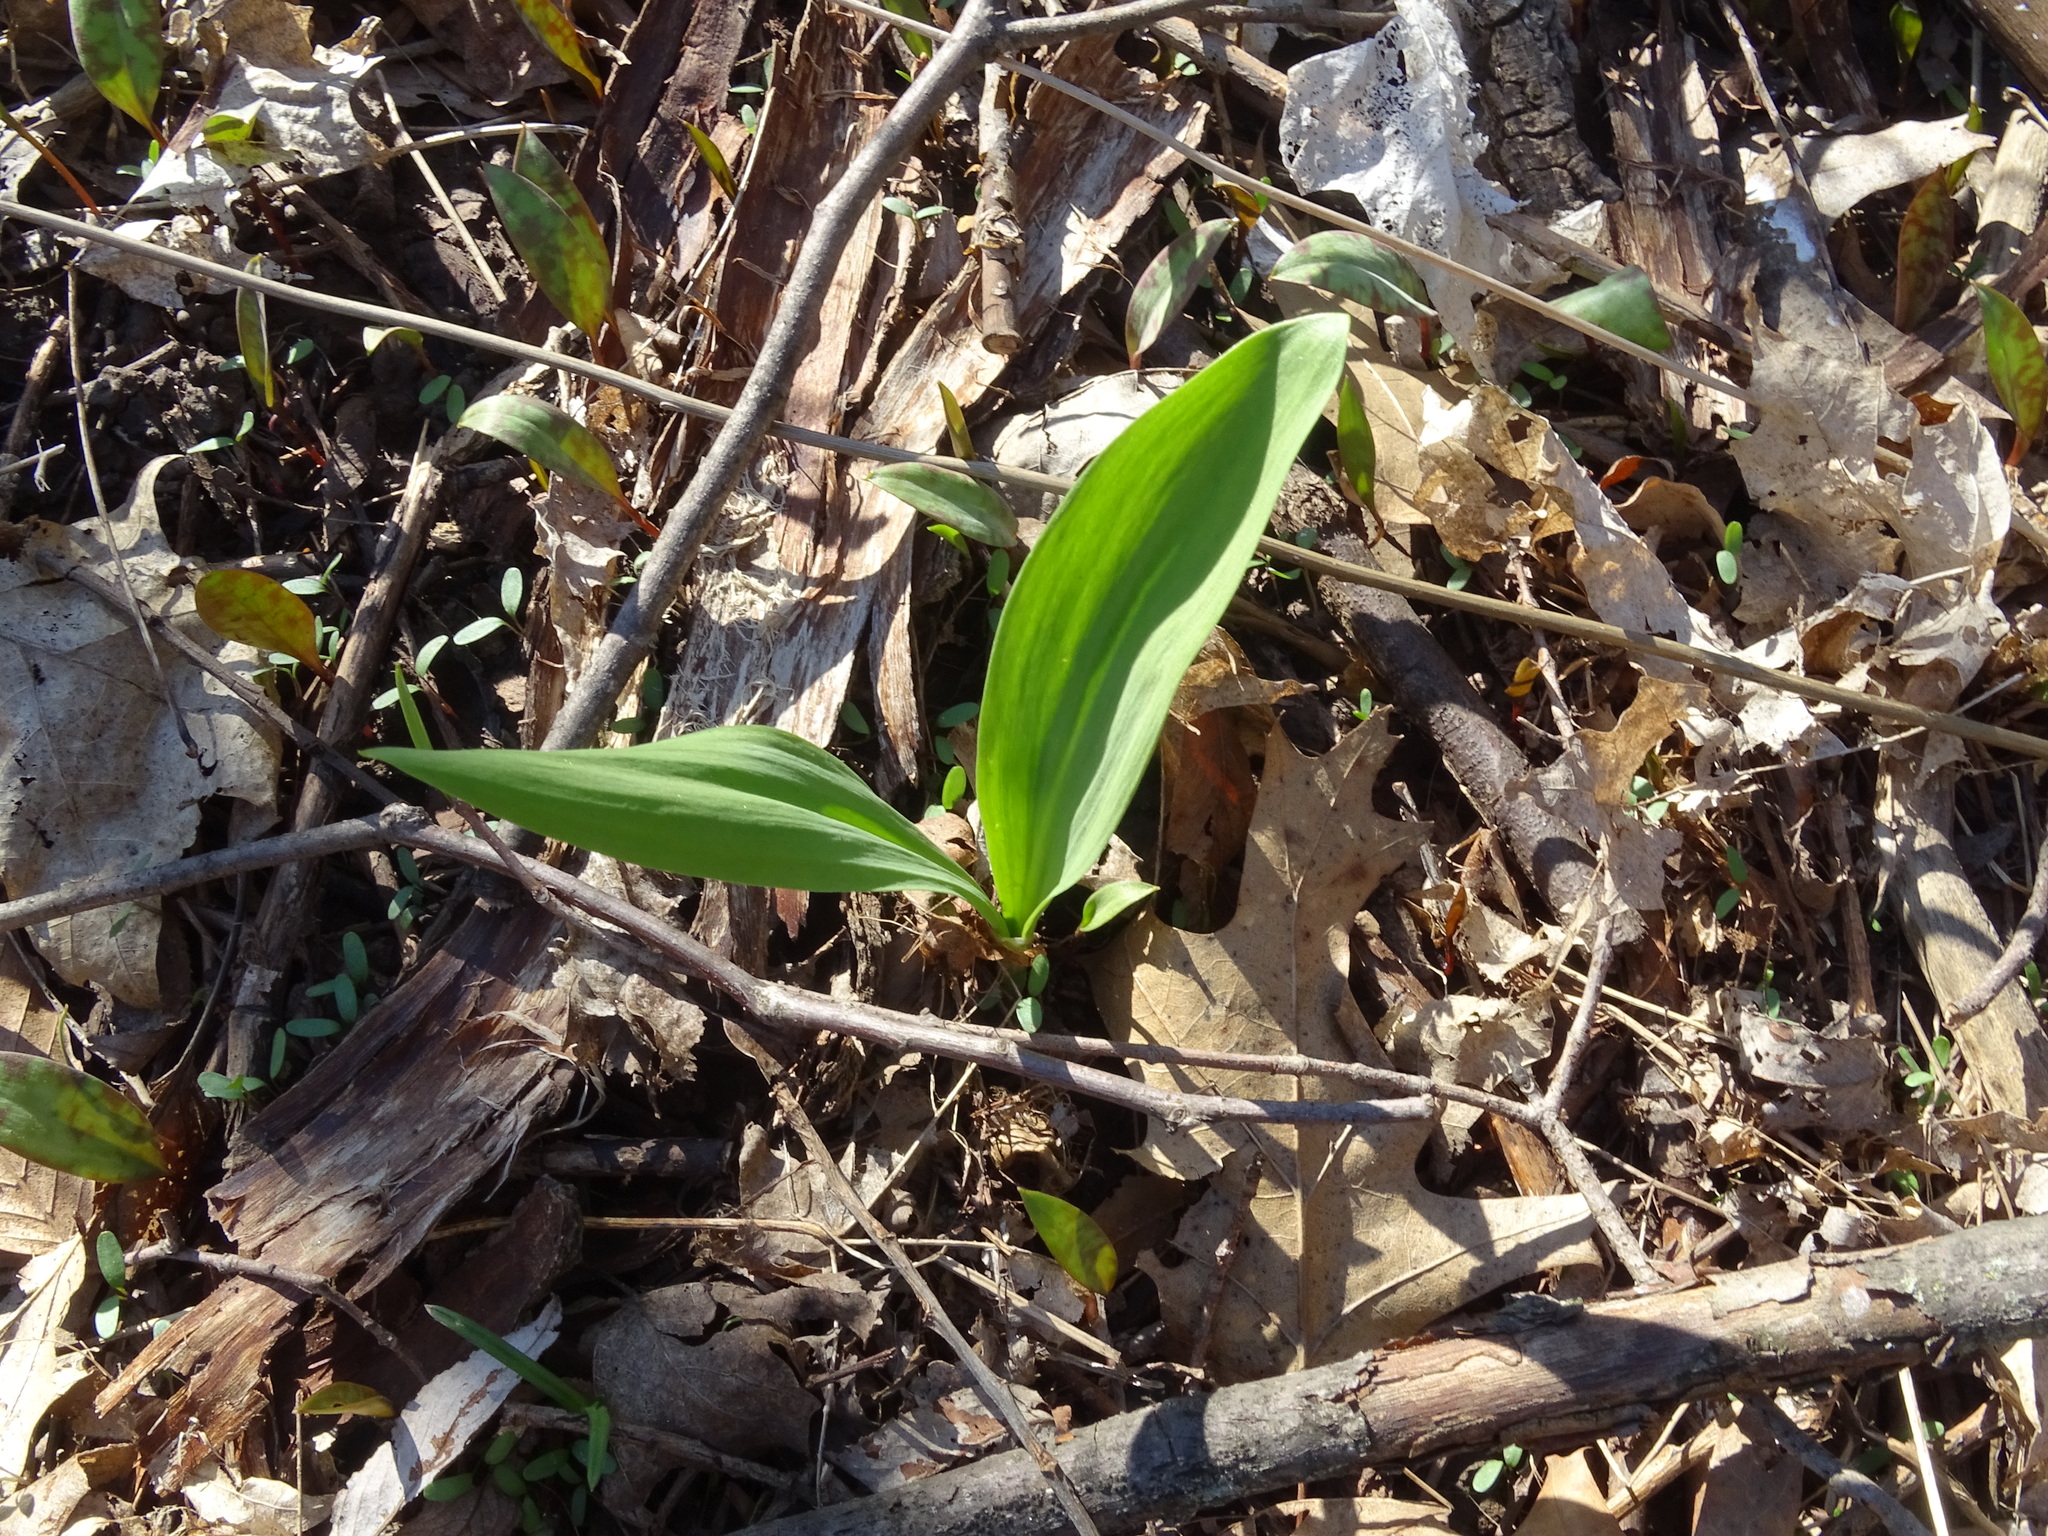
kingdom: Plantae
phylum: Tracheophyta
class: Liliopsida
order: Asparagales
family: Amaryllidaceae
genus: Allium
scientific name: Allium tricoccum
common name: Ramp
